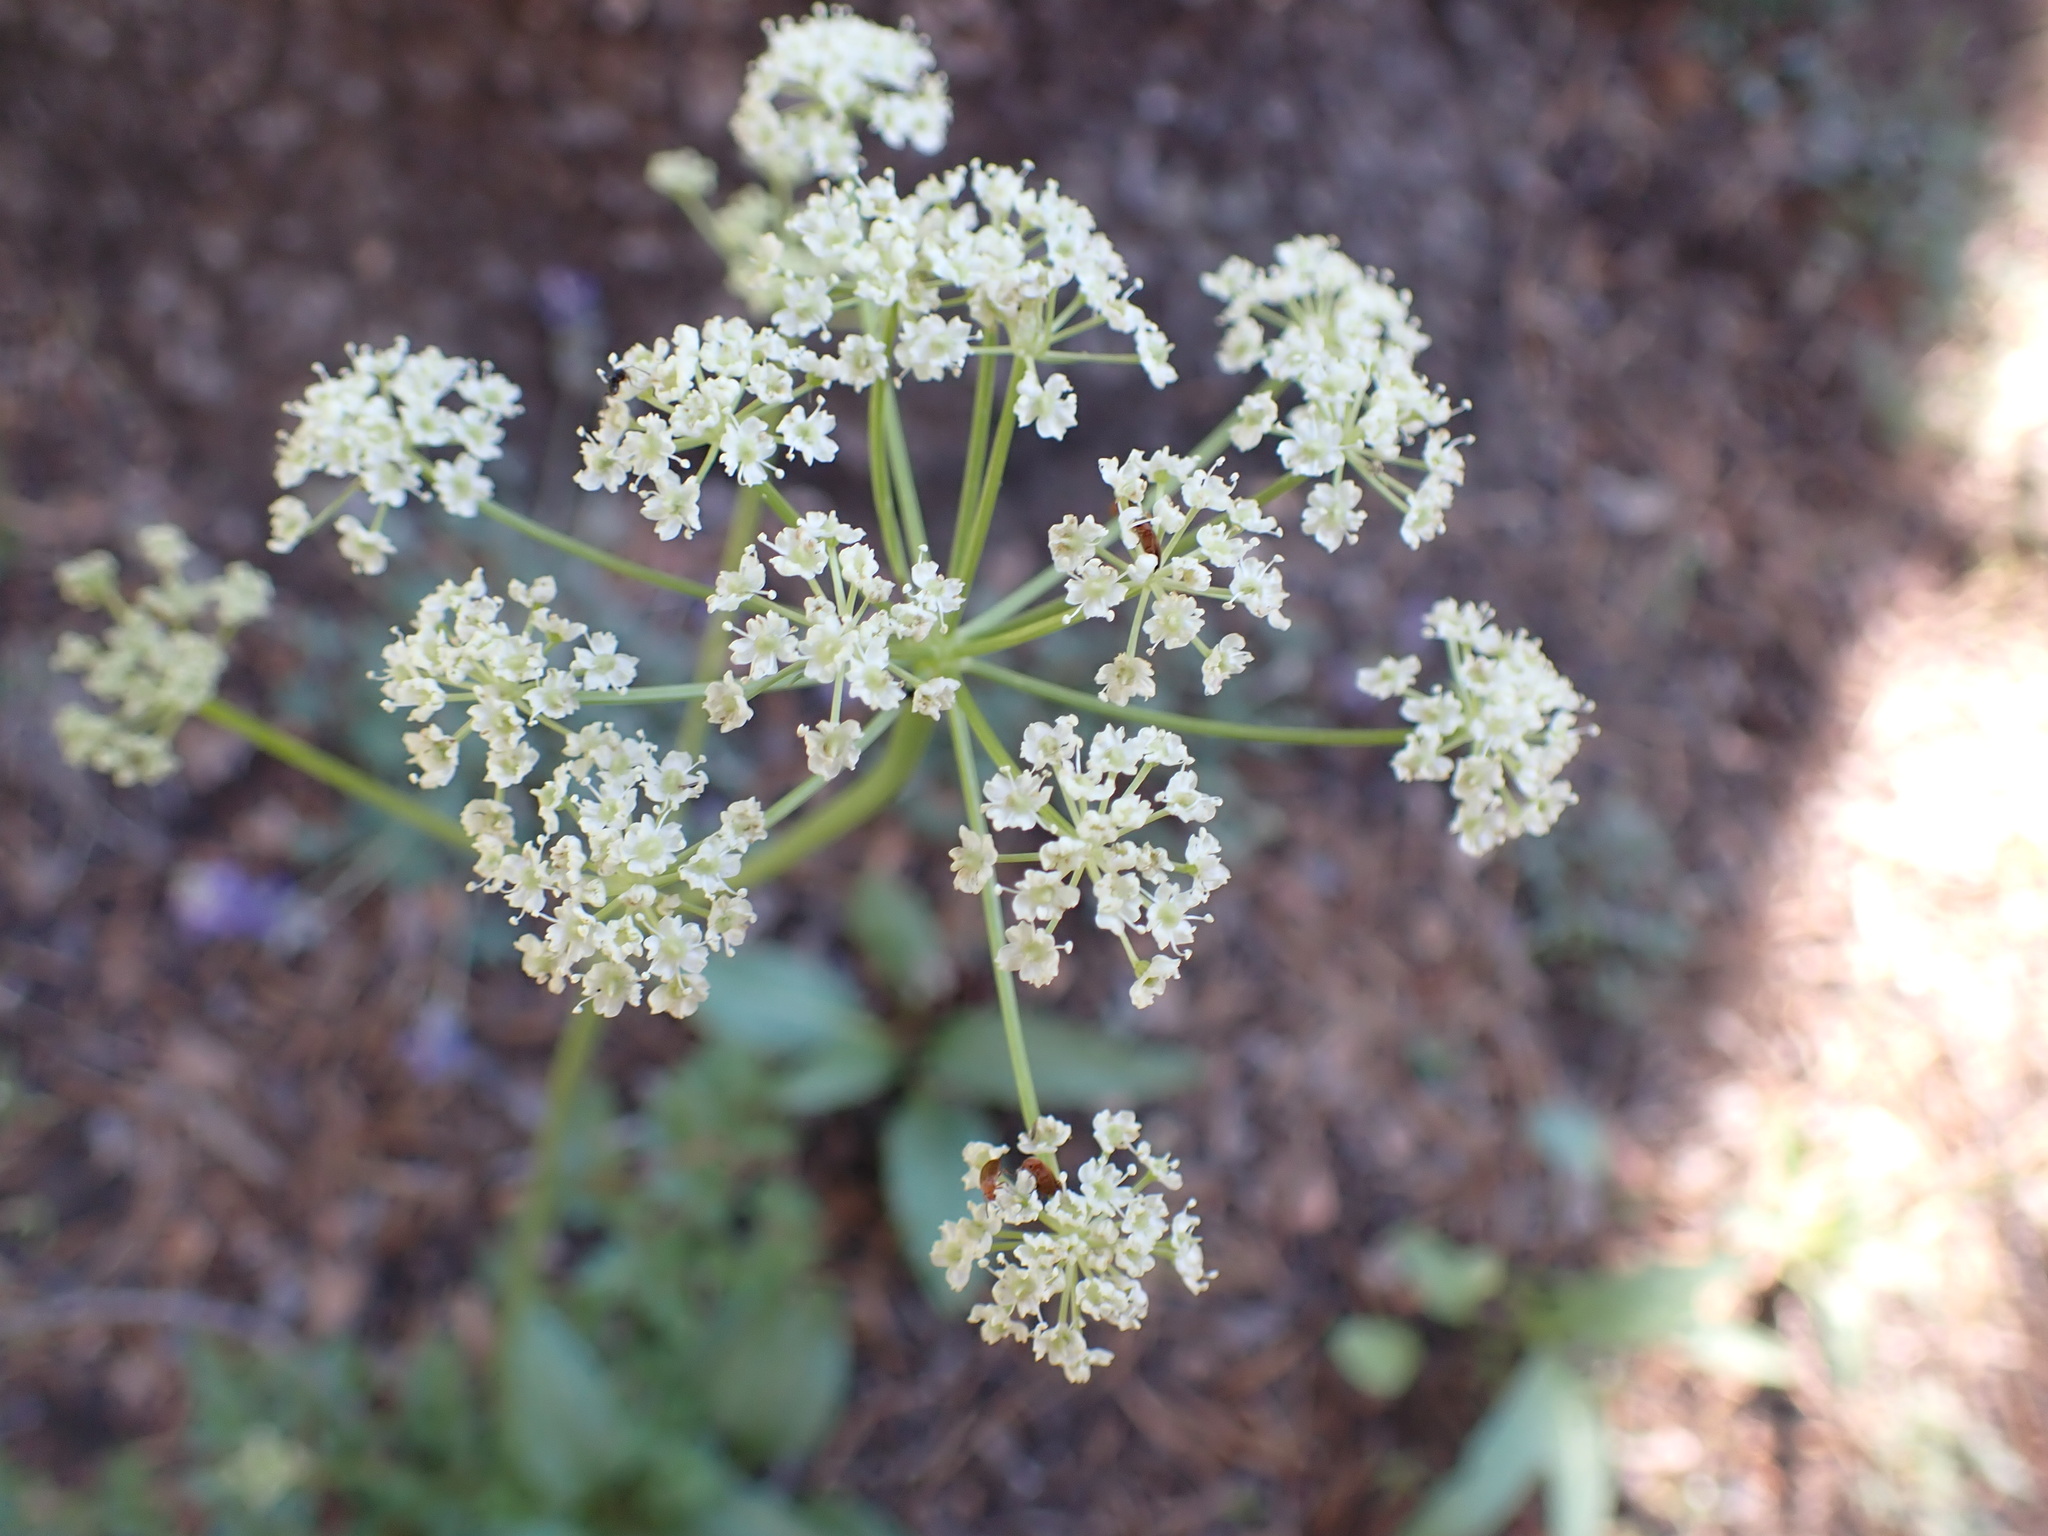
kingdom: Plantae
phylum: Tracheophyta
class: Magnoliopsida
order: Apiales
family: Apiaceae
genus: Ligusticum
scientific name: Ligusticum grayi
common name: Gray's licorice-root
